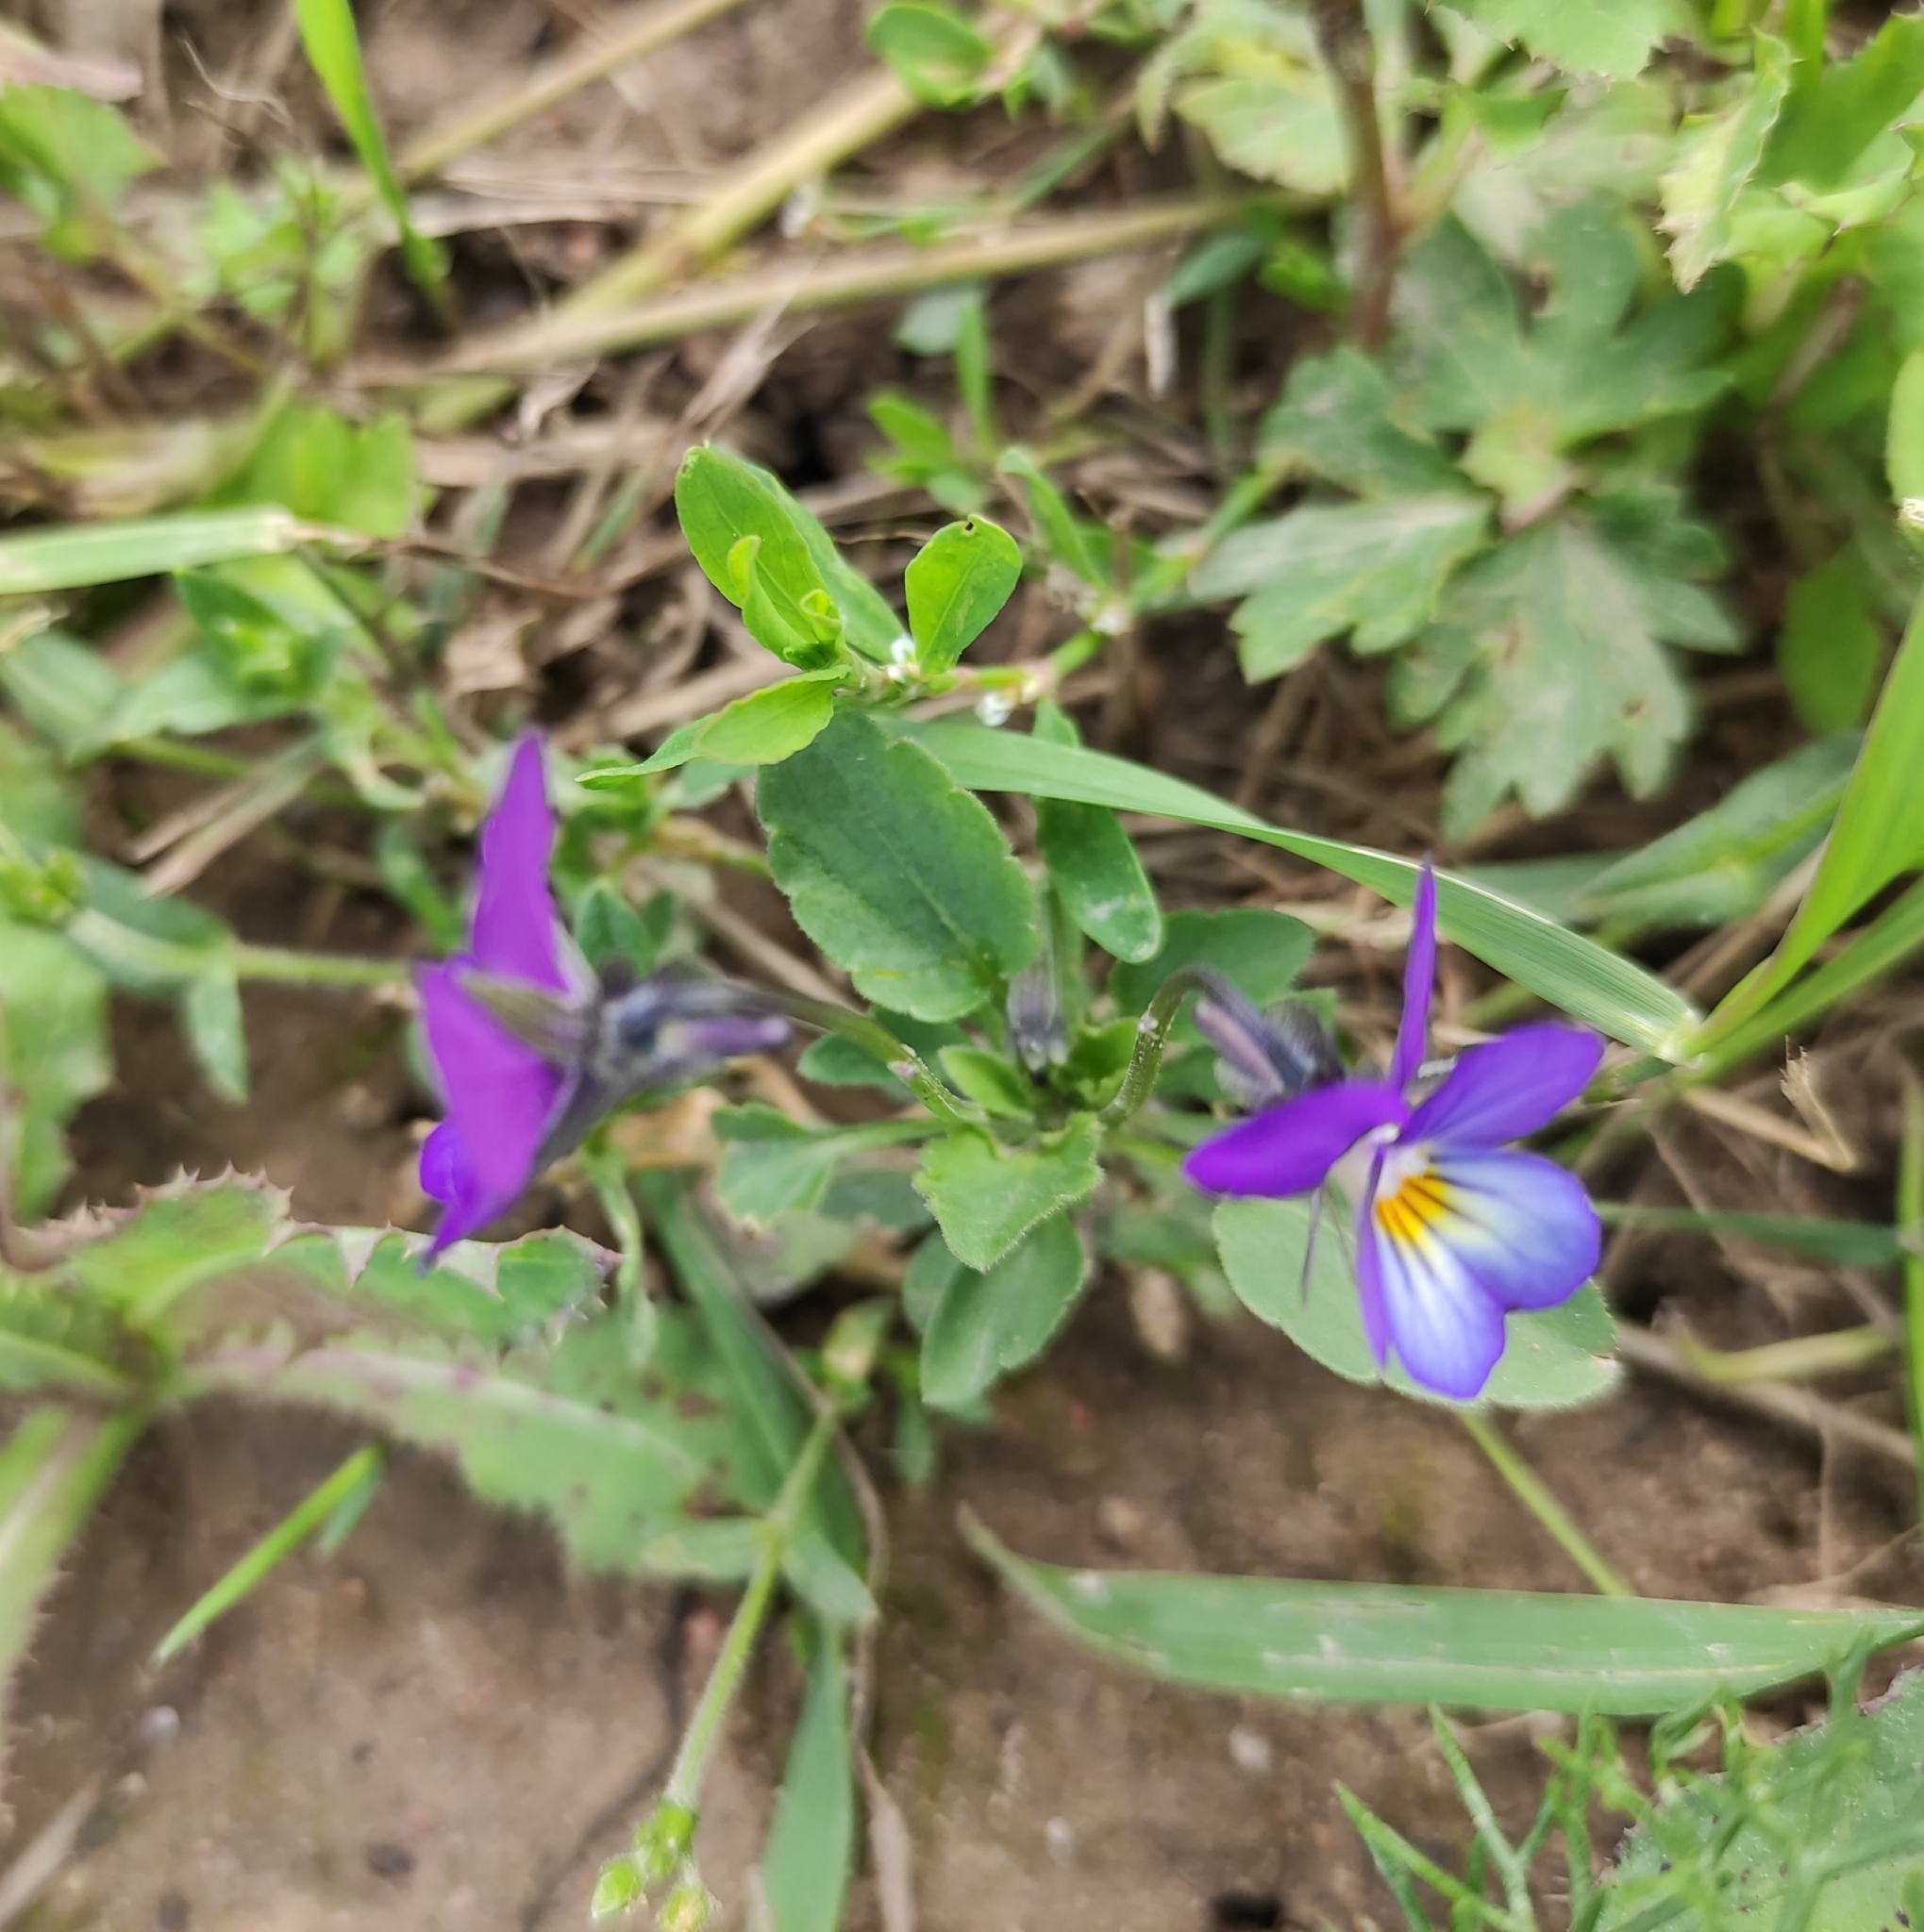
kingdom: Plantae
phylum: Tracheophyta
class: Magnoliopsida
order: Malpighiales
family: Violaceae
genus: Viola
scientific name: Viola tricolor
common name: Pansy
